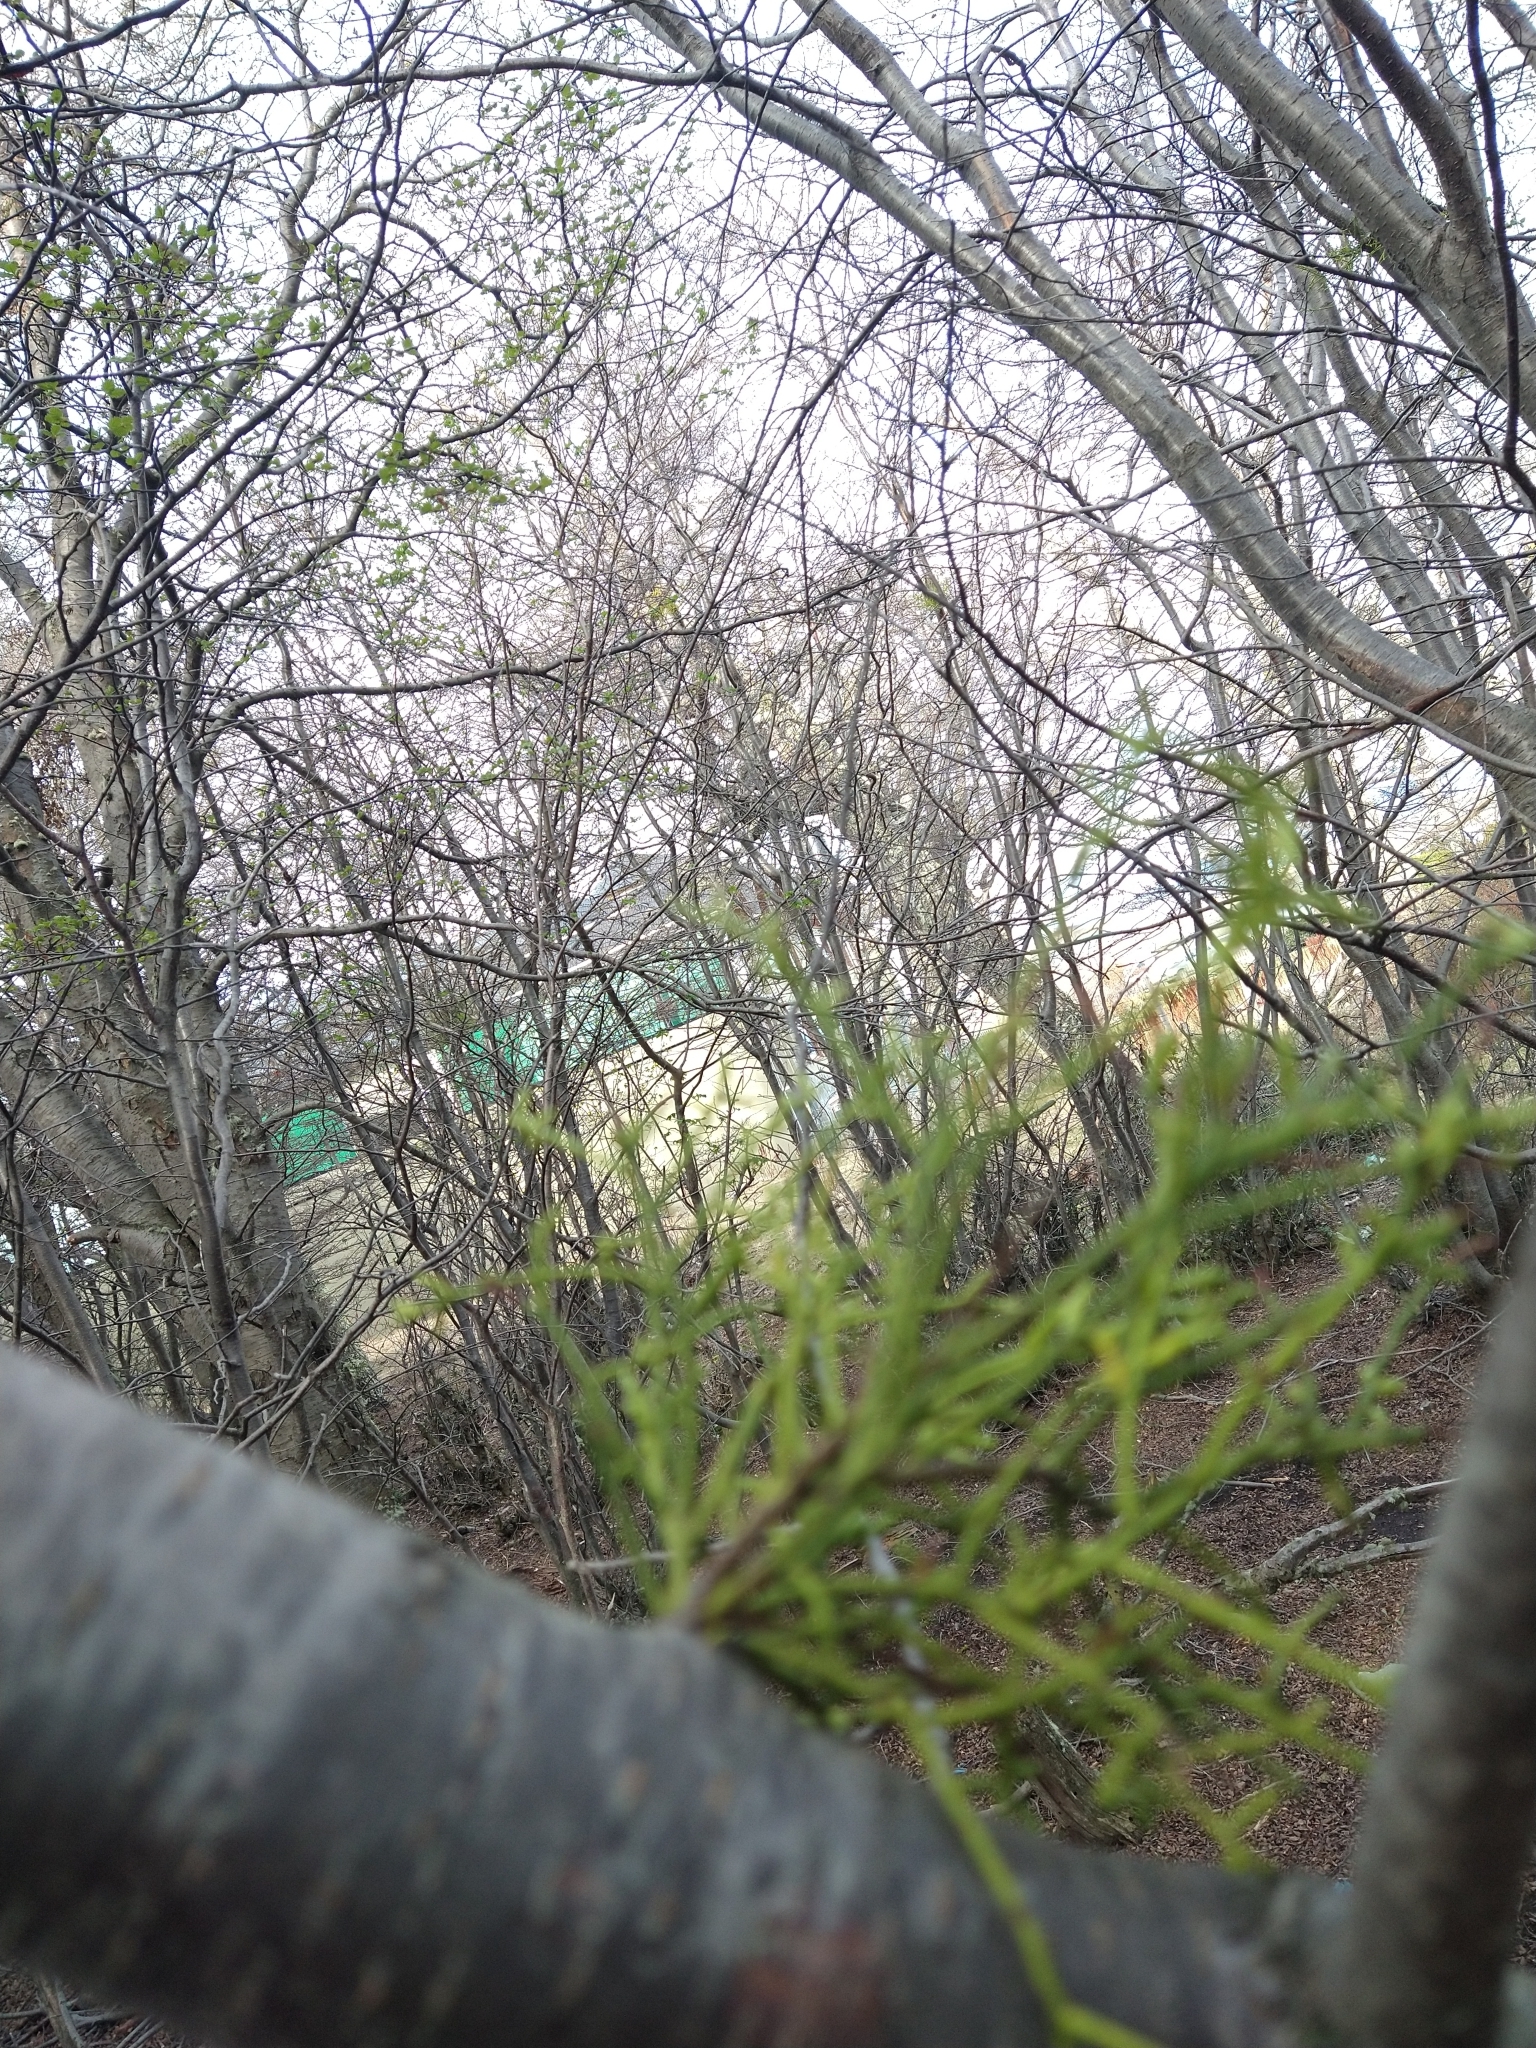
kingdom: Plantae
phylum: Tracheophyta
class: Magnoliopsida
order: Santalales
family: Misodendraceae
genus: Misodendrum
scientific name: Misodendrum punctulatum
